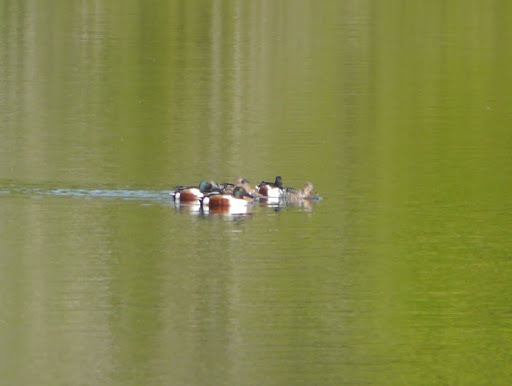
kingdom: Animalia
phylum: Chordata
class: Aves
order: Anseriformes
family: Anatidae
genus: Spatula
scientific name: Spatula clypeata
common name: Northern shoveler
